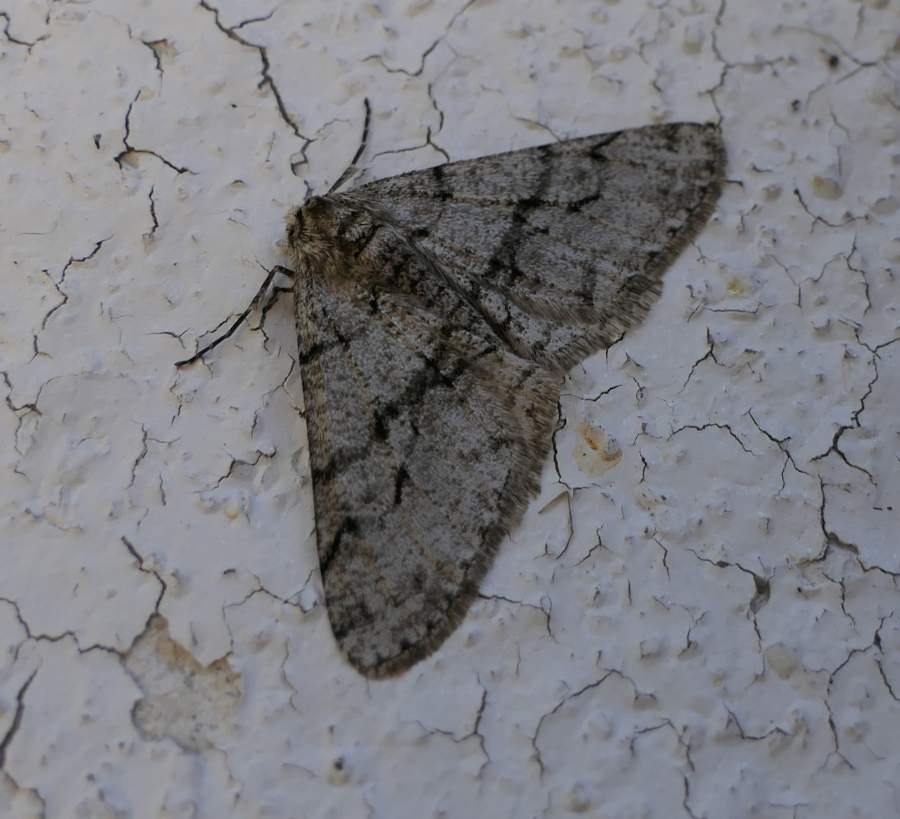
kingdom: Animalia
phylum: Arthropoda
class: Insecta
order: Lepidoptera
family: Geometridae
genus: Phigalia
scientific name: Phigalia titea
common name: Spiny looper
